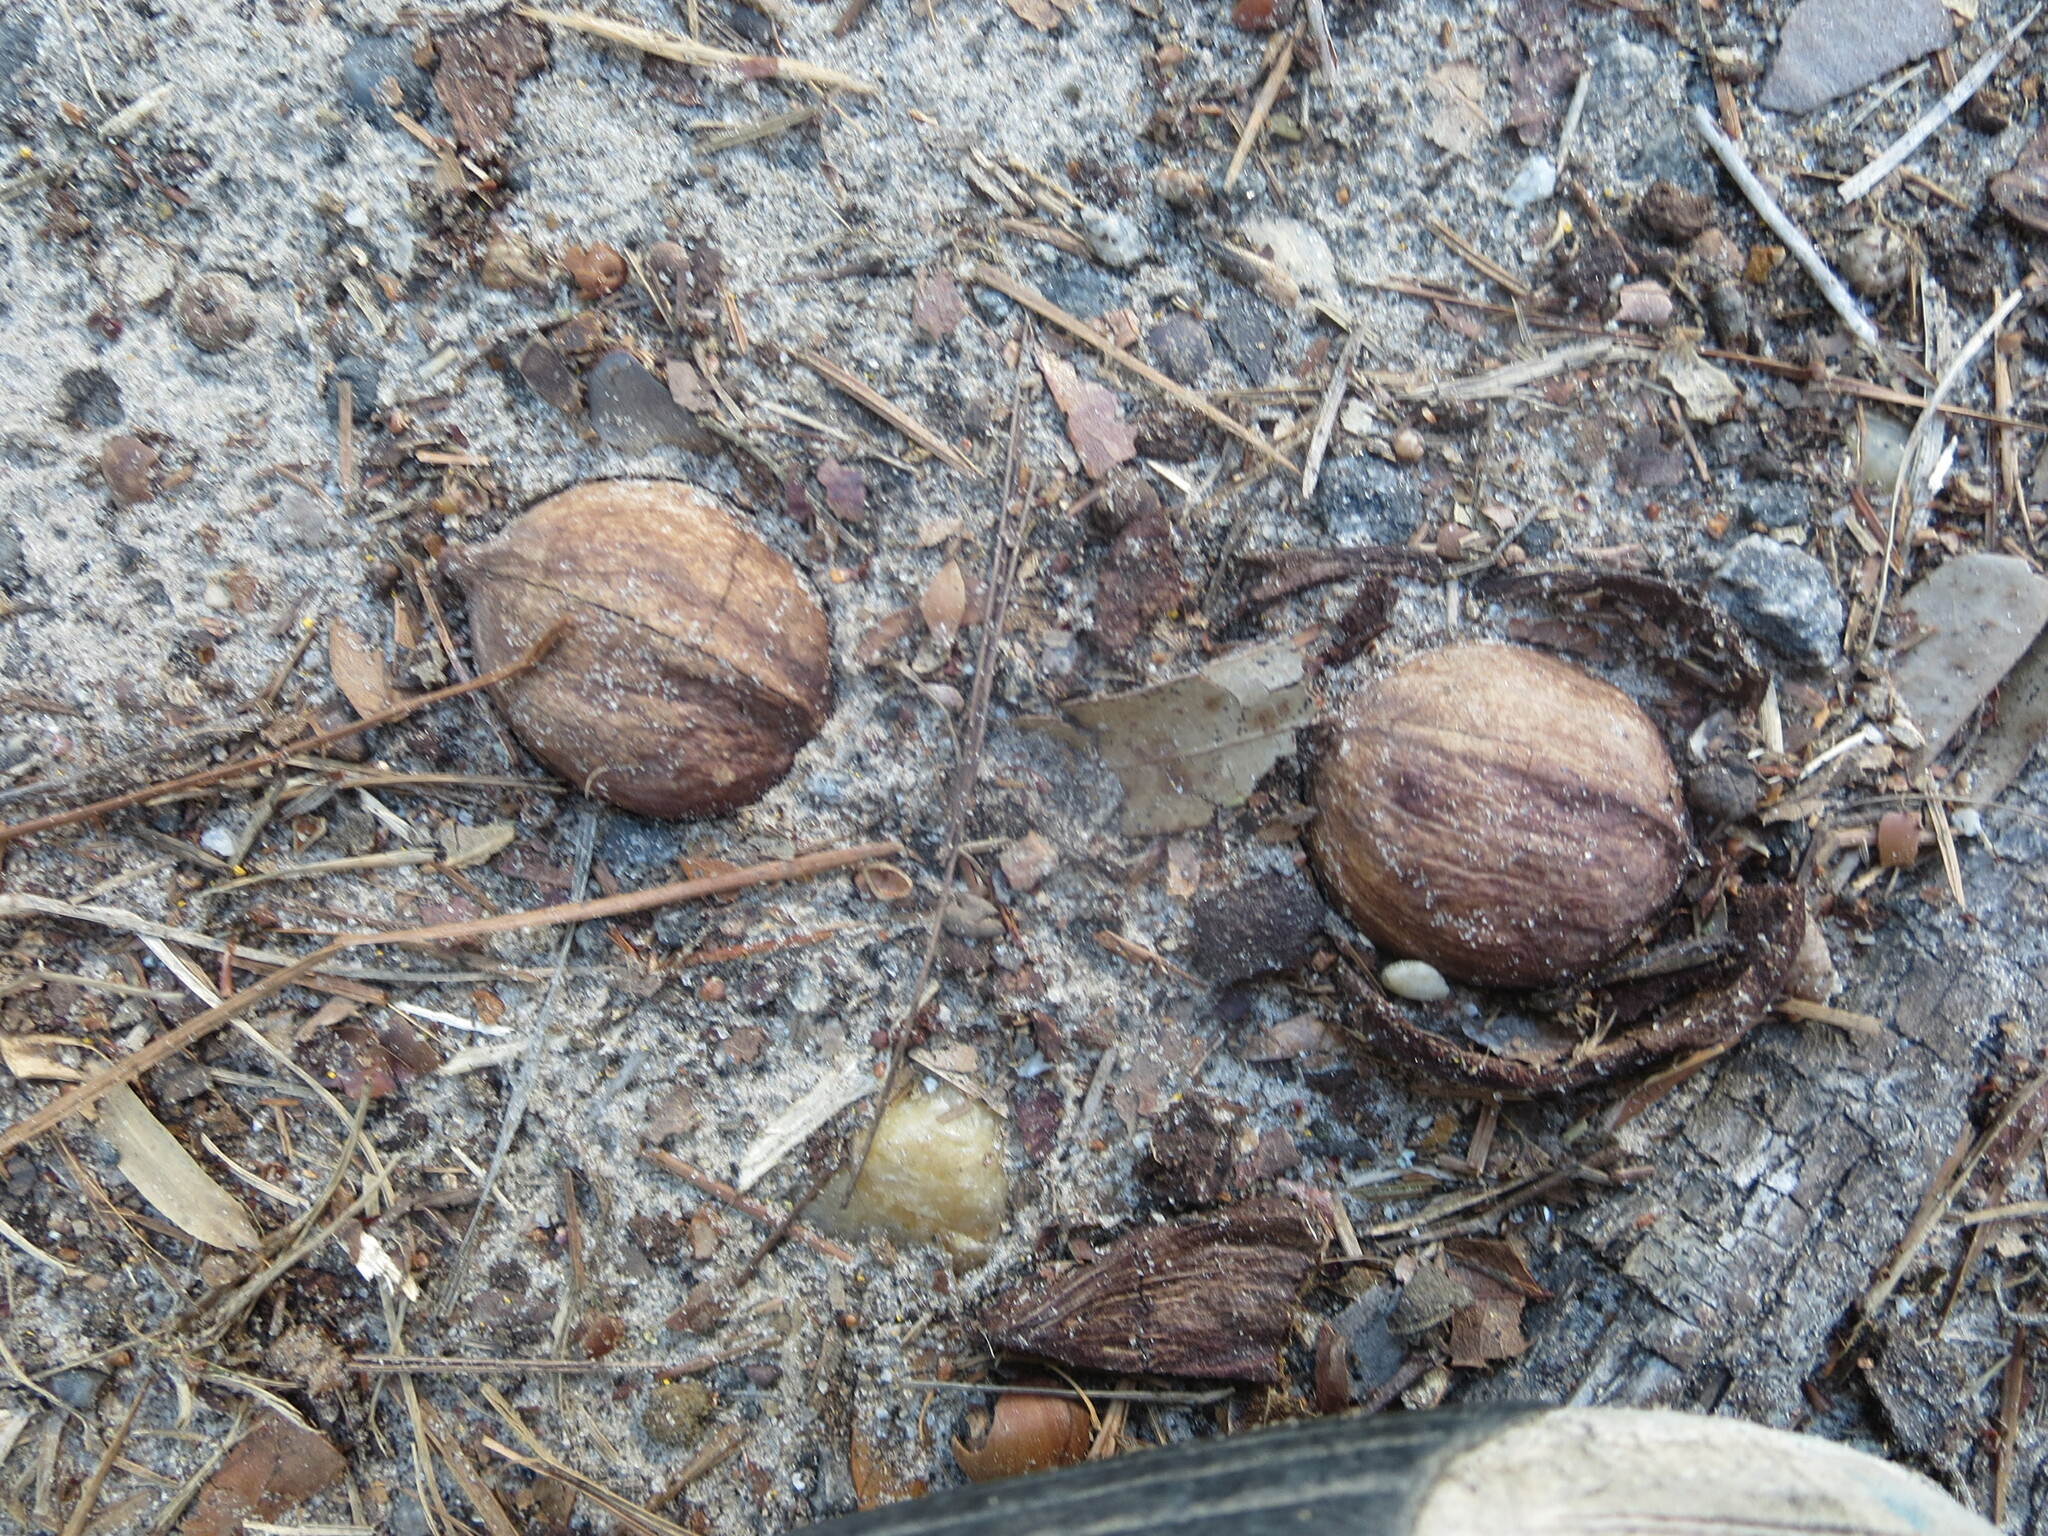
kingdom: Plantae
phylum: Tracheophyta
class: Magnoliopsida
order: Fagales
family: Juglandaceae
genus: Carya
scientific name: Carya glabra
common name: Pignut hickory
